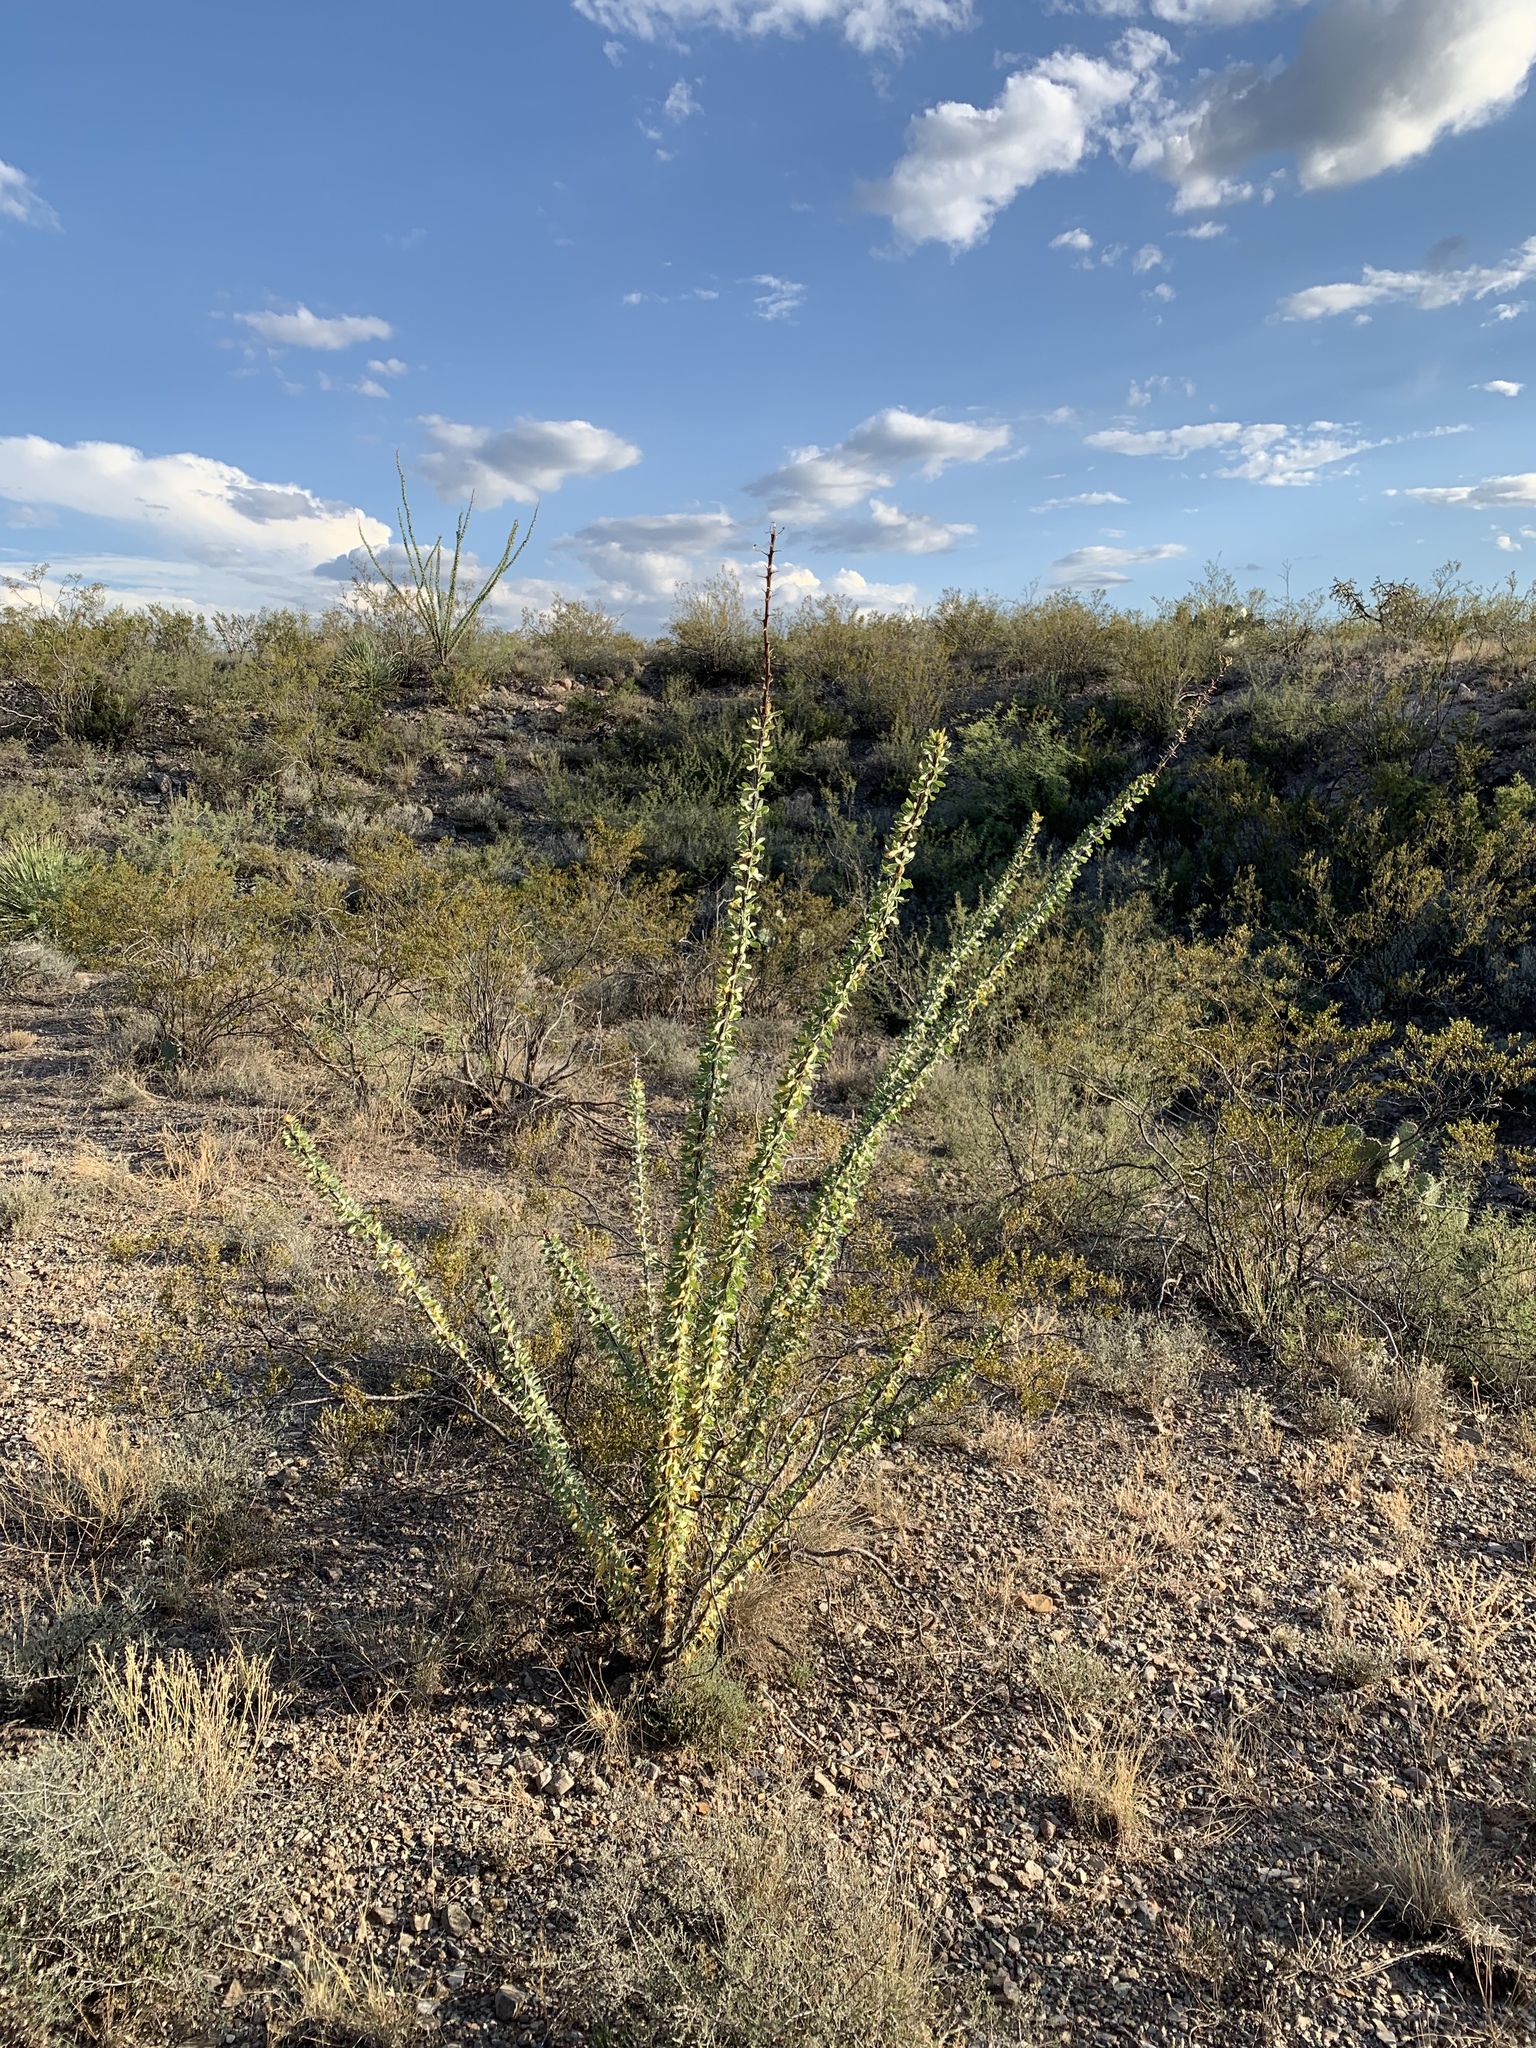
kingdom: Plantae
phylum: Tracheophyta
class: Magnoliopsida
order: Ericales
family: Fouquieriaceae
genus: Fouquieria
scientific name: Fouquieria splendens
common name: Vine-cactus
